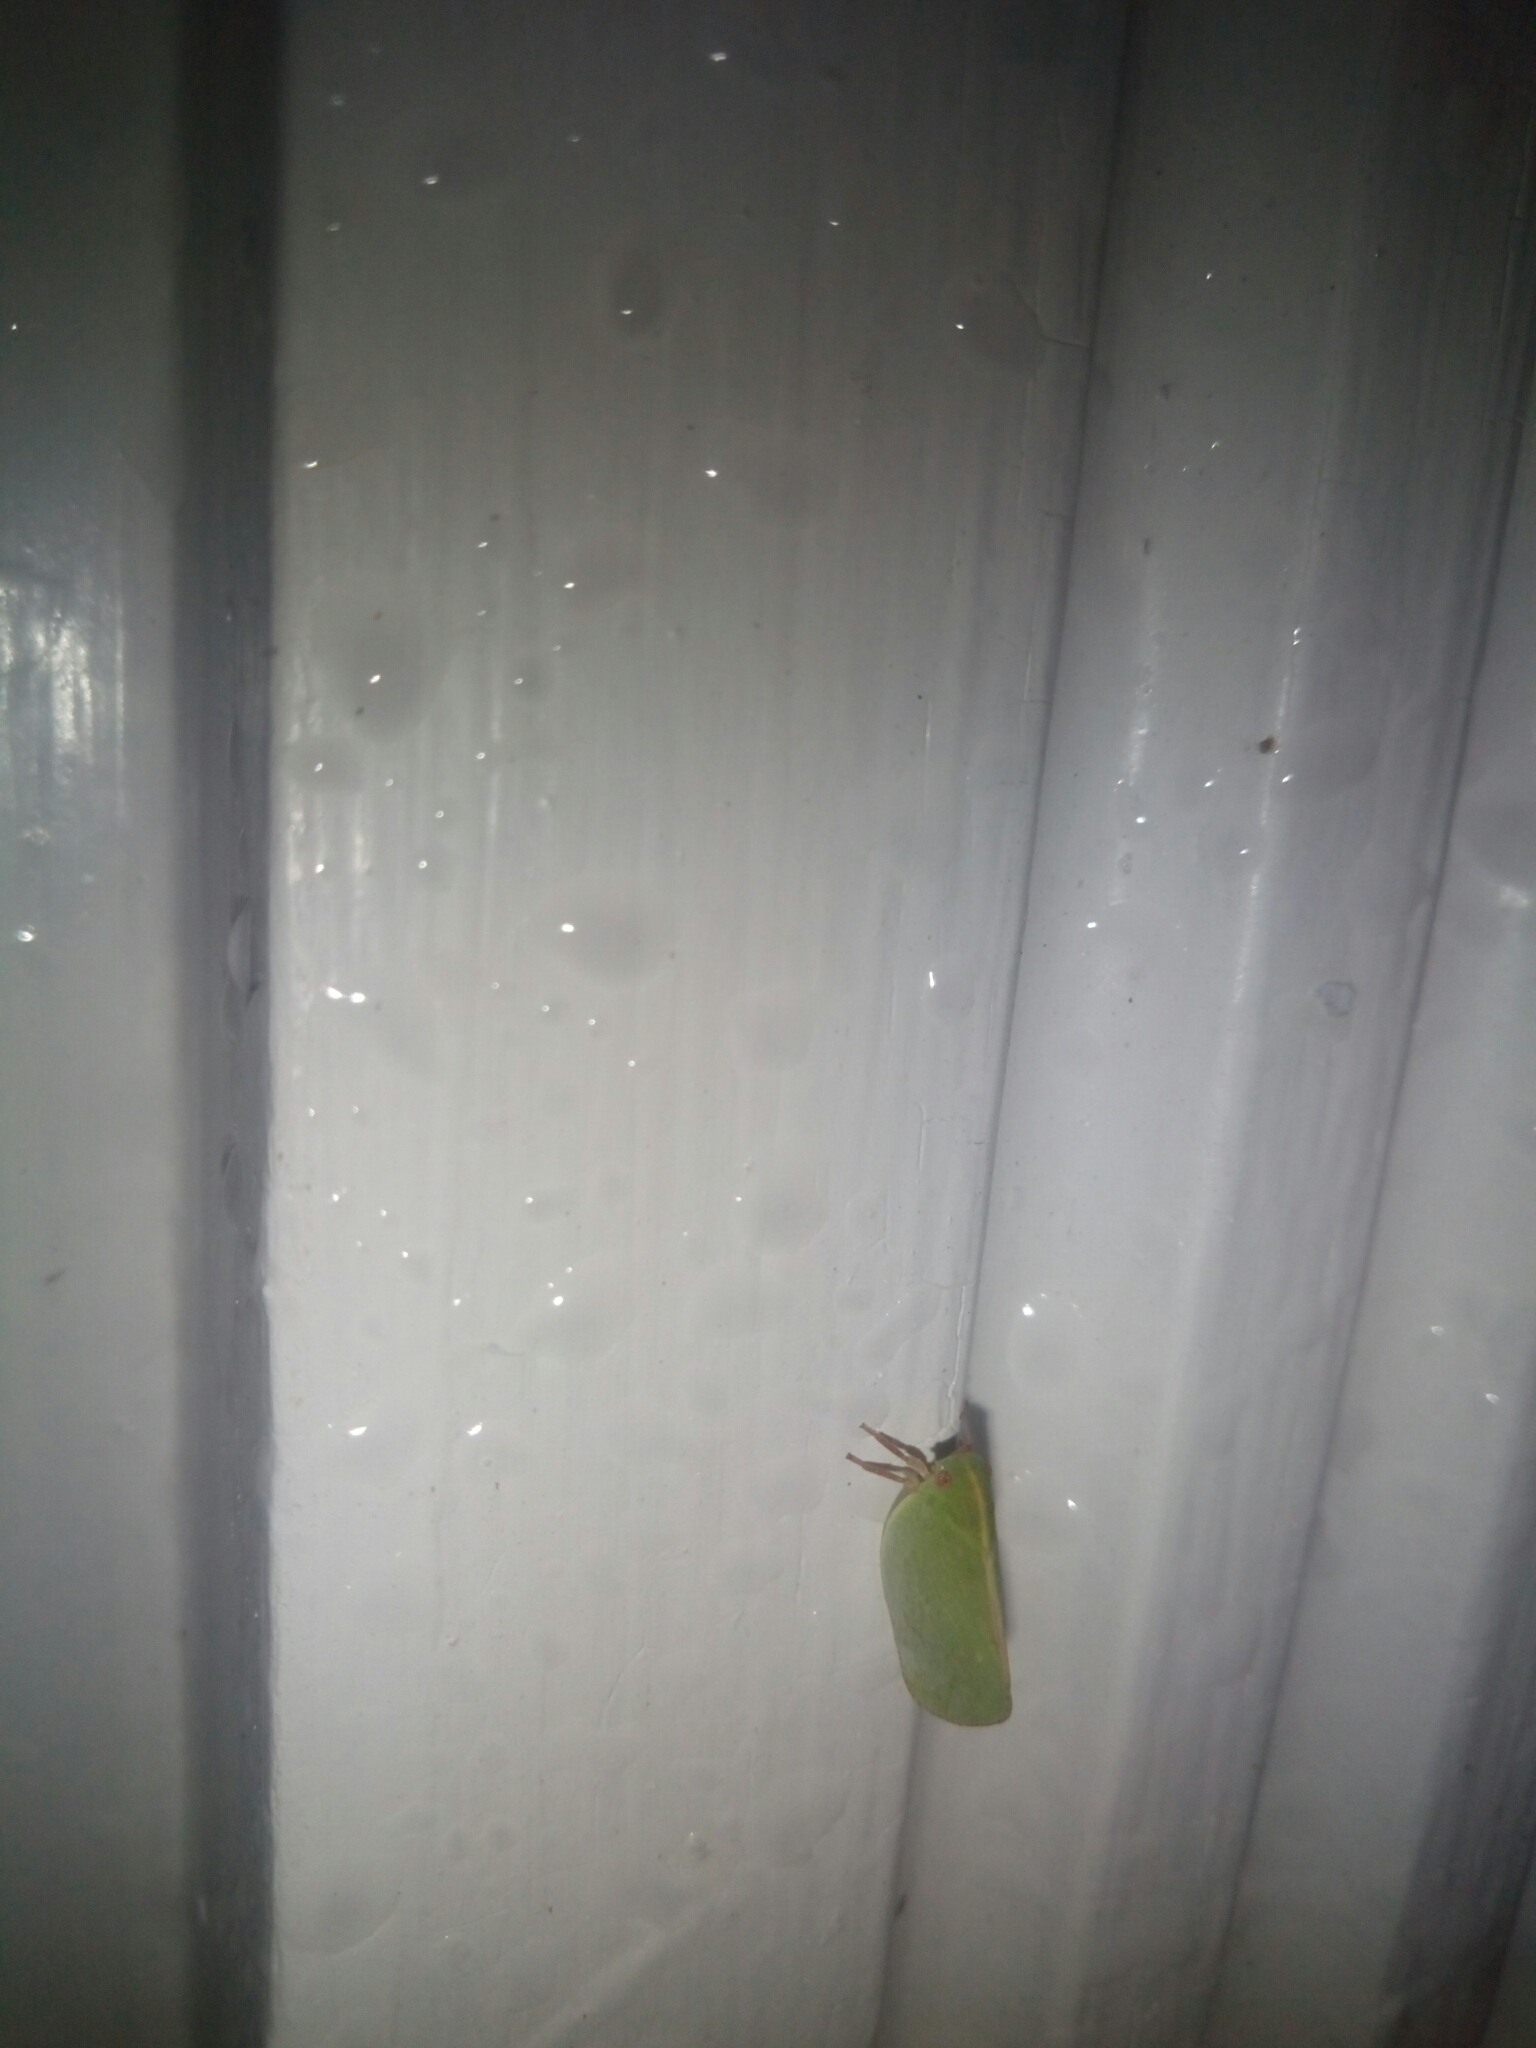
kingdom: Animalia
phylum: Arthropoda
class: Insecta
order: Hemiptera
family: Acanaloniidae
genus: Acanalonia
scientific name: Acanalonia servillei
